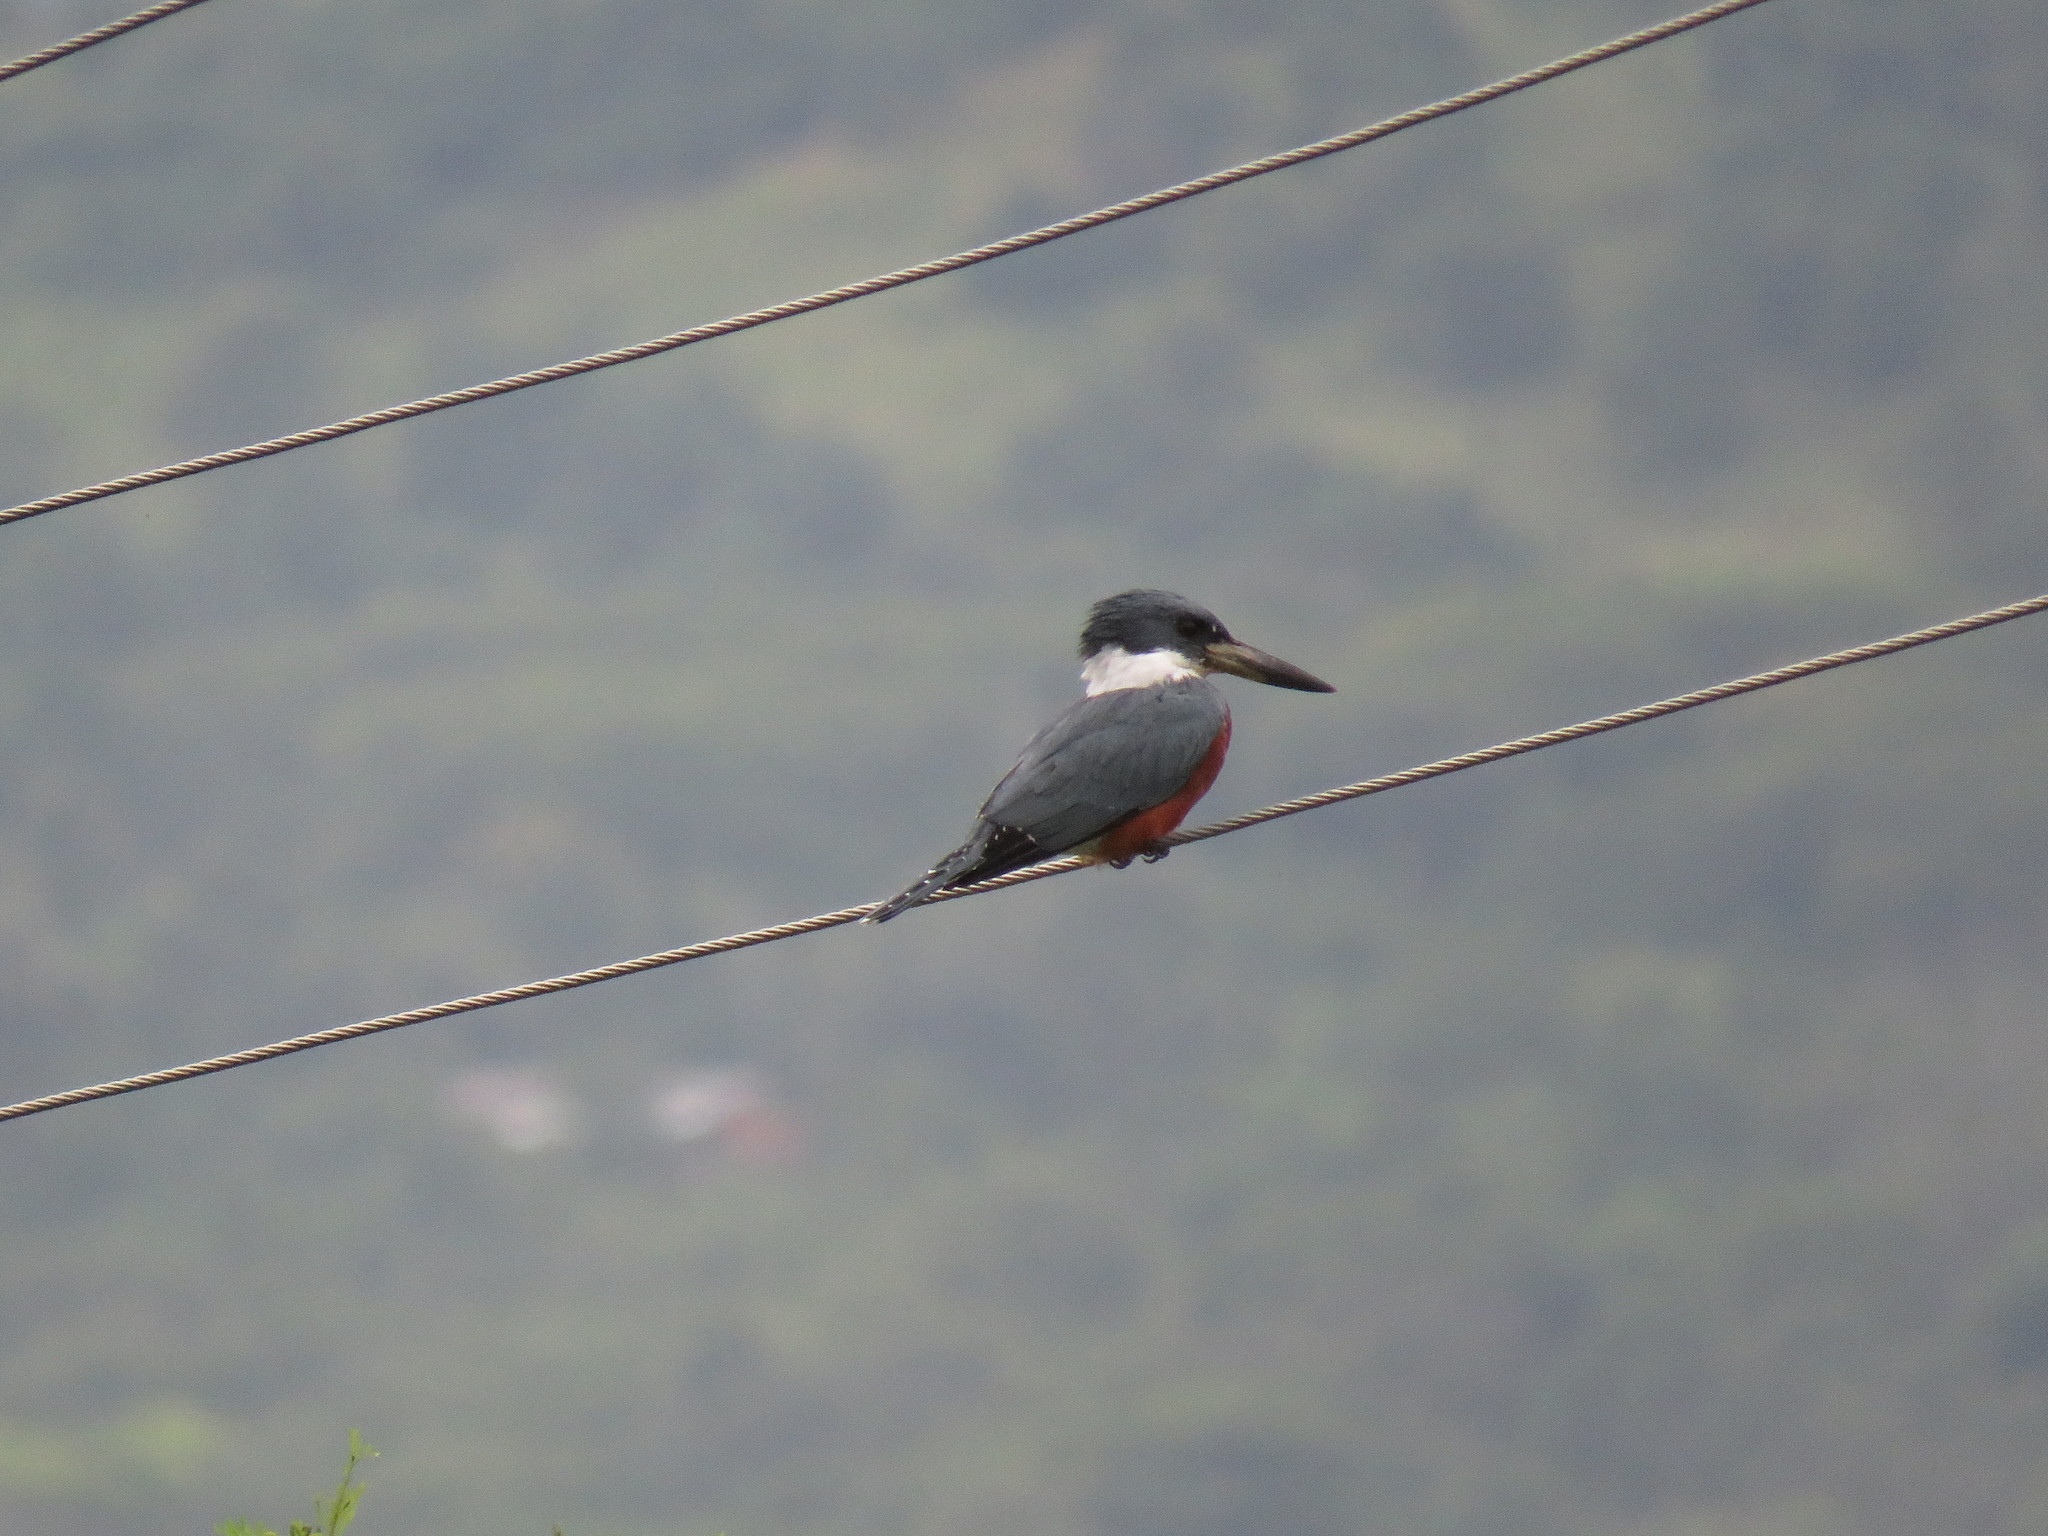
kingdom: Animalia
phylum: Chordata
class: Aves
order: Coraciiformes
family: Alcedinidae
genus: Megaceryle
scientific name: Megaceryle torquata
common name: Ringed kingfisher
